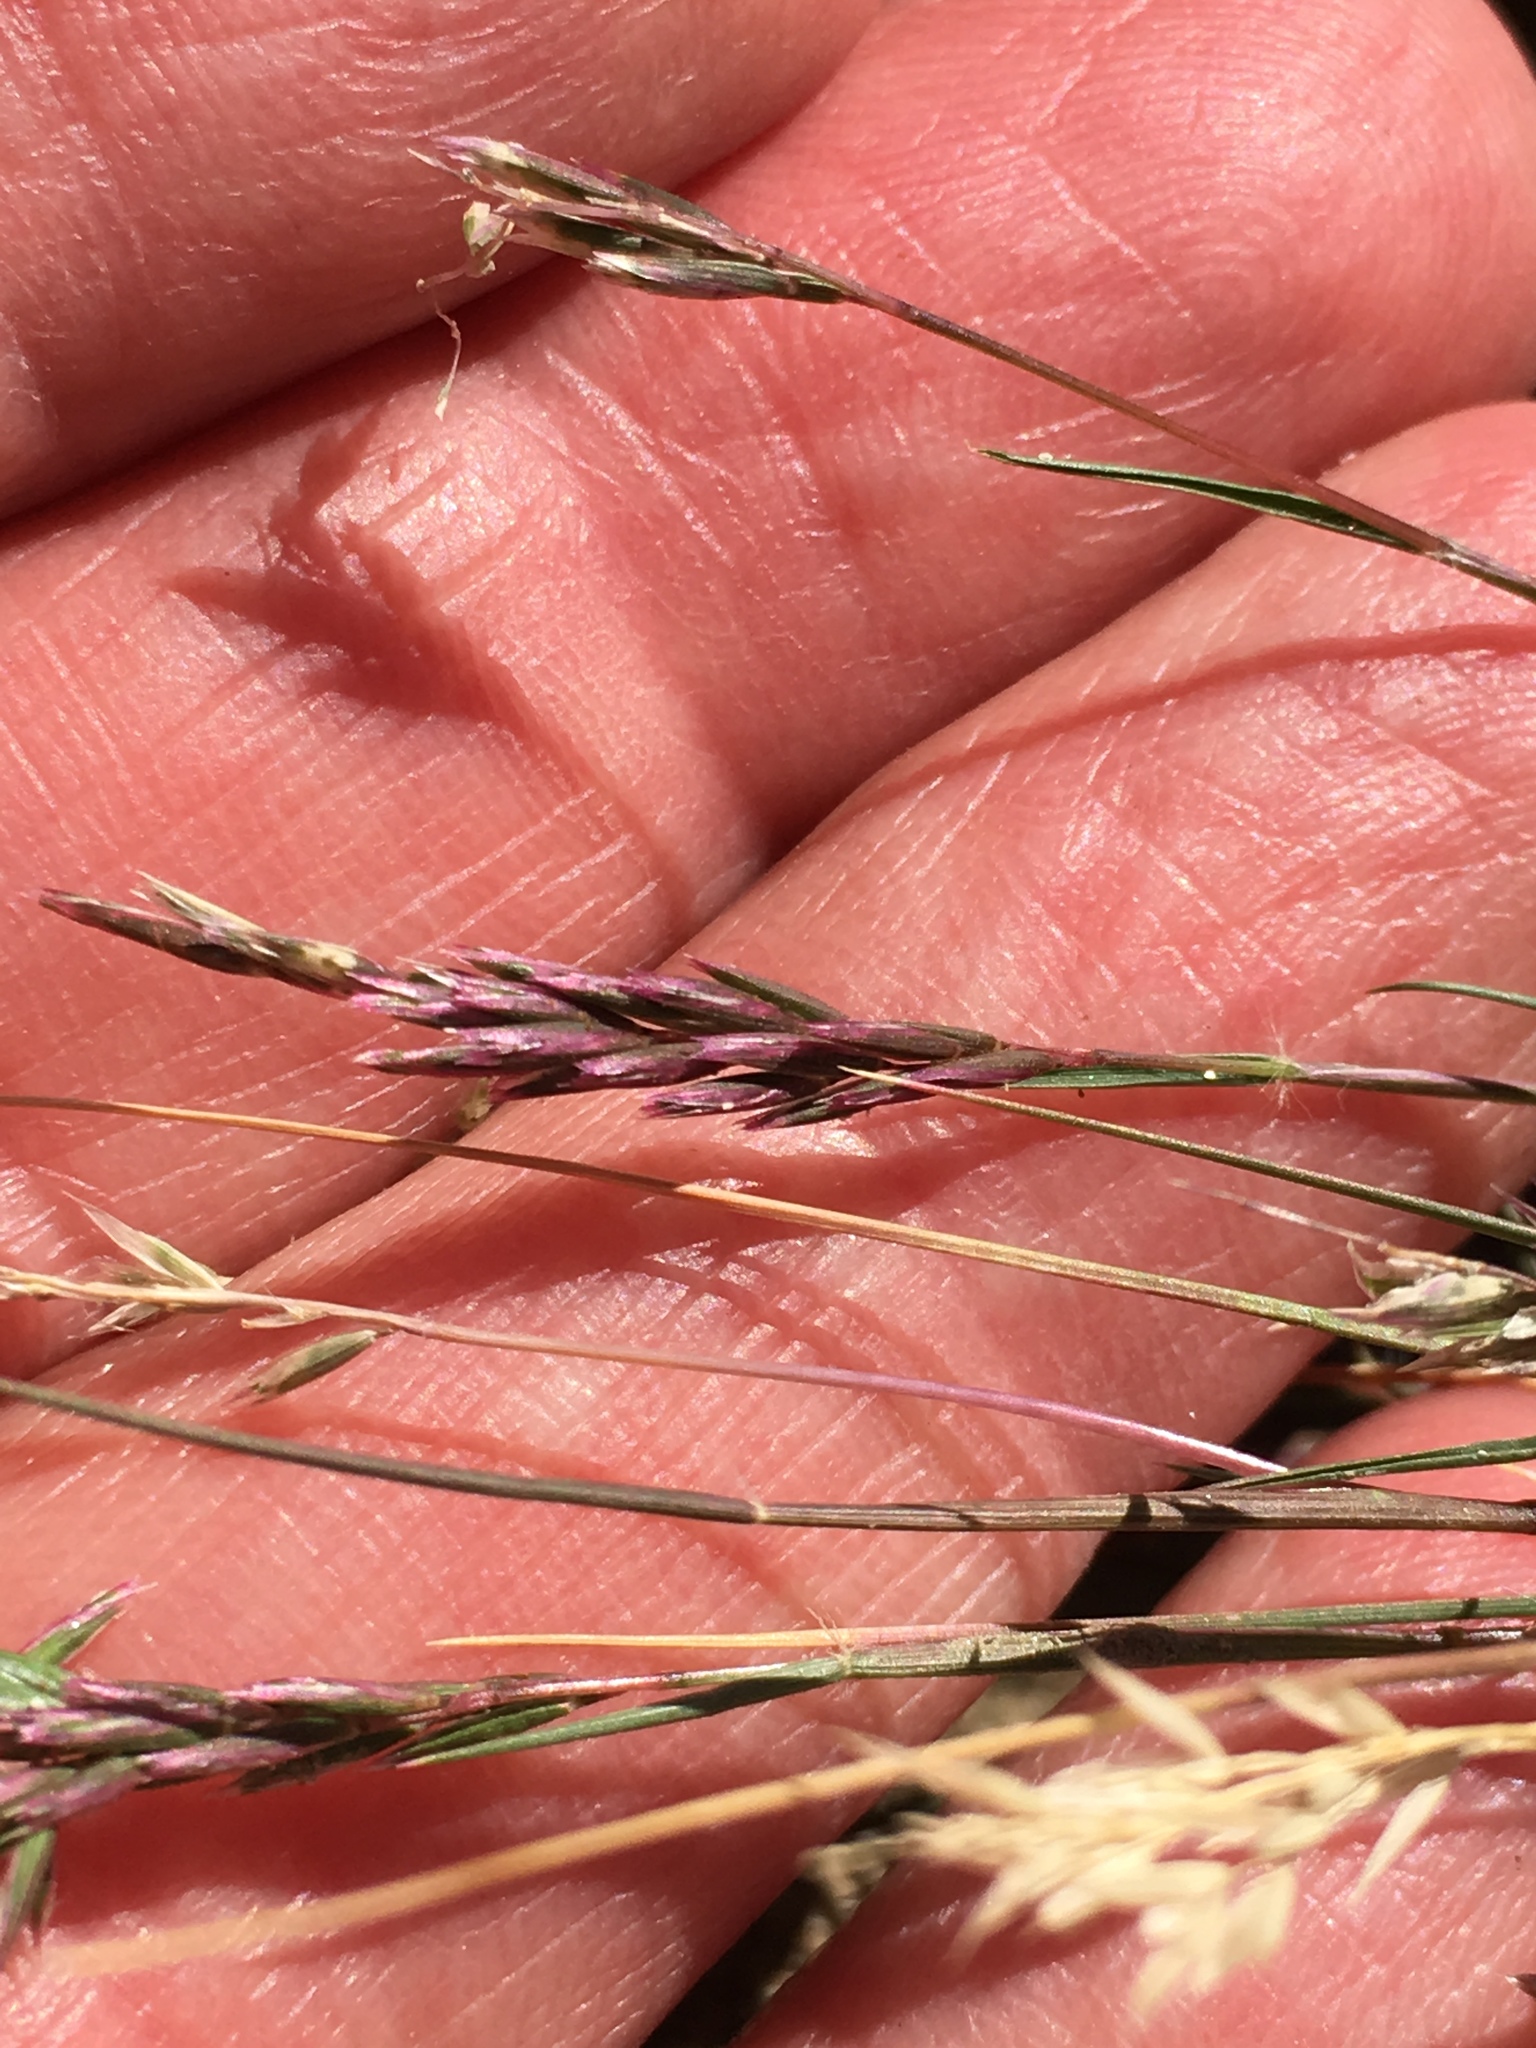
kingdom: Plantae
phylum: Tracheophyta
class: Liliopsida
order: Poales
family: Poaceae
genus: Schismus
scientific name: Schismus arabicus
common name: Arabian schismus
